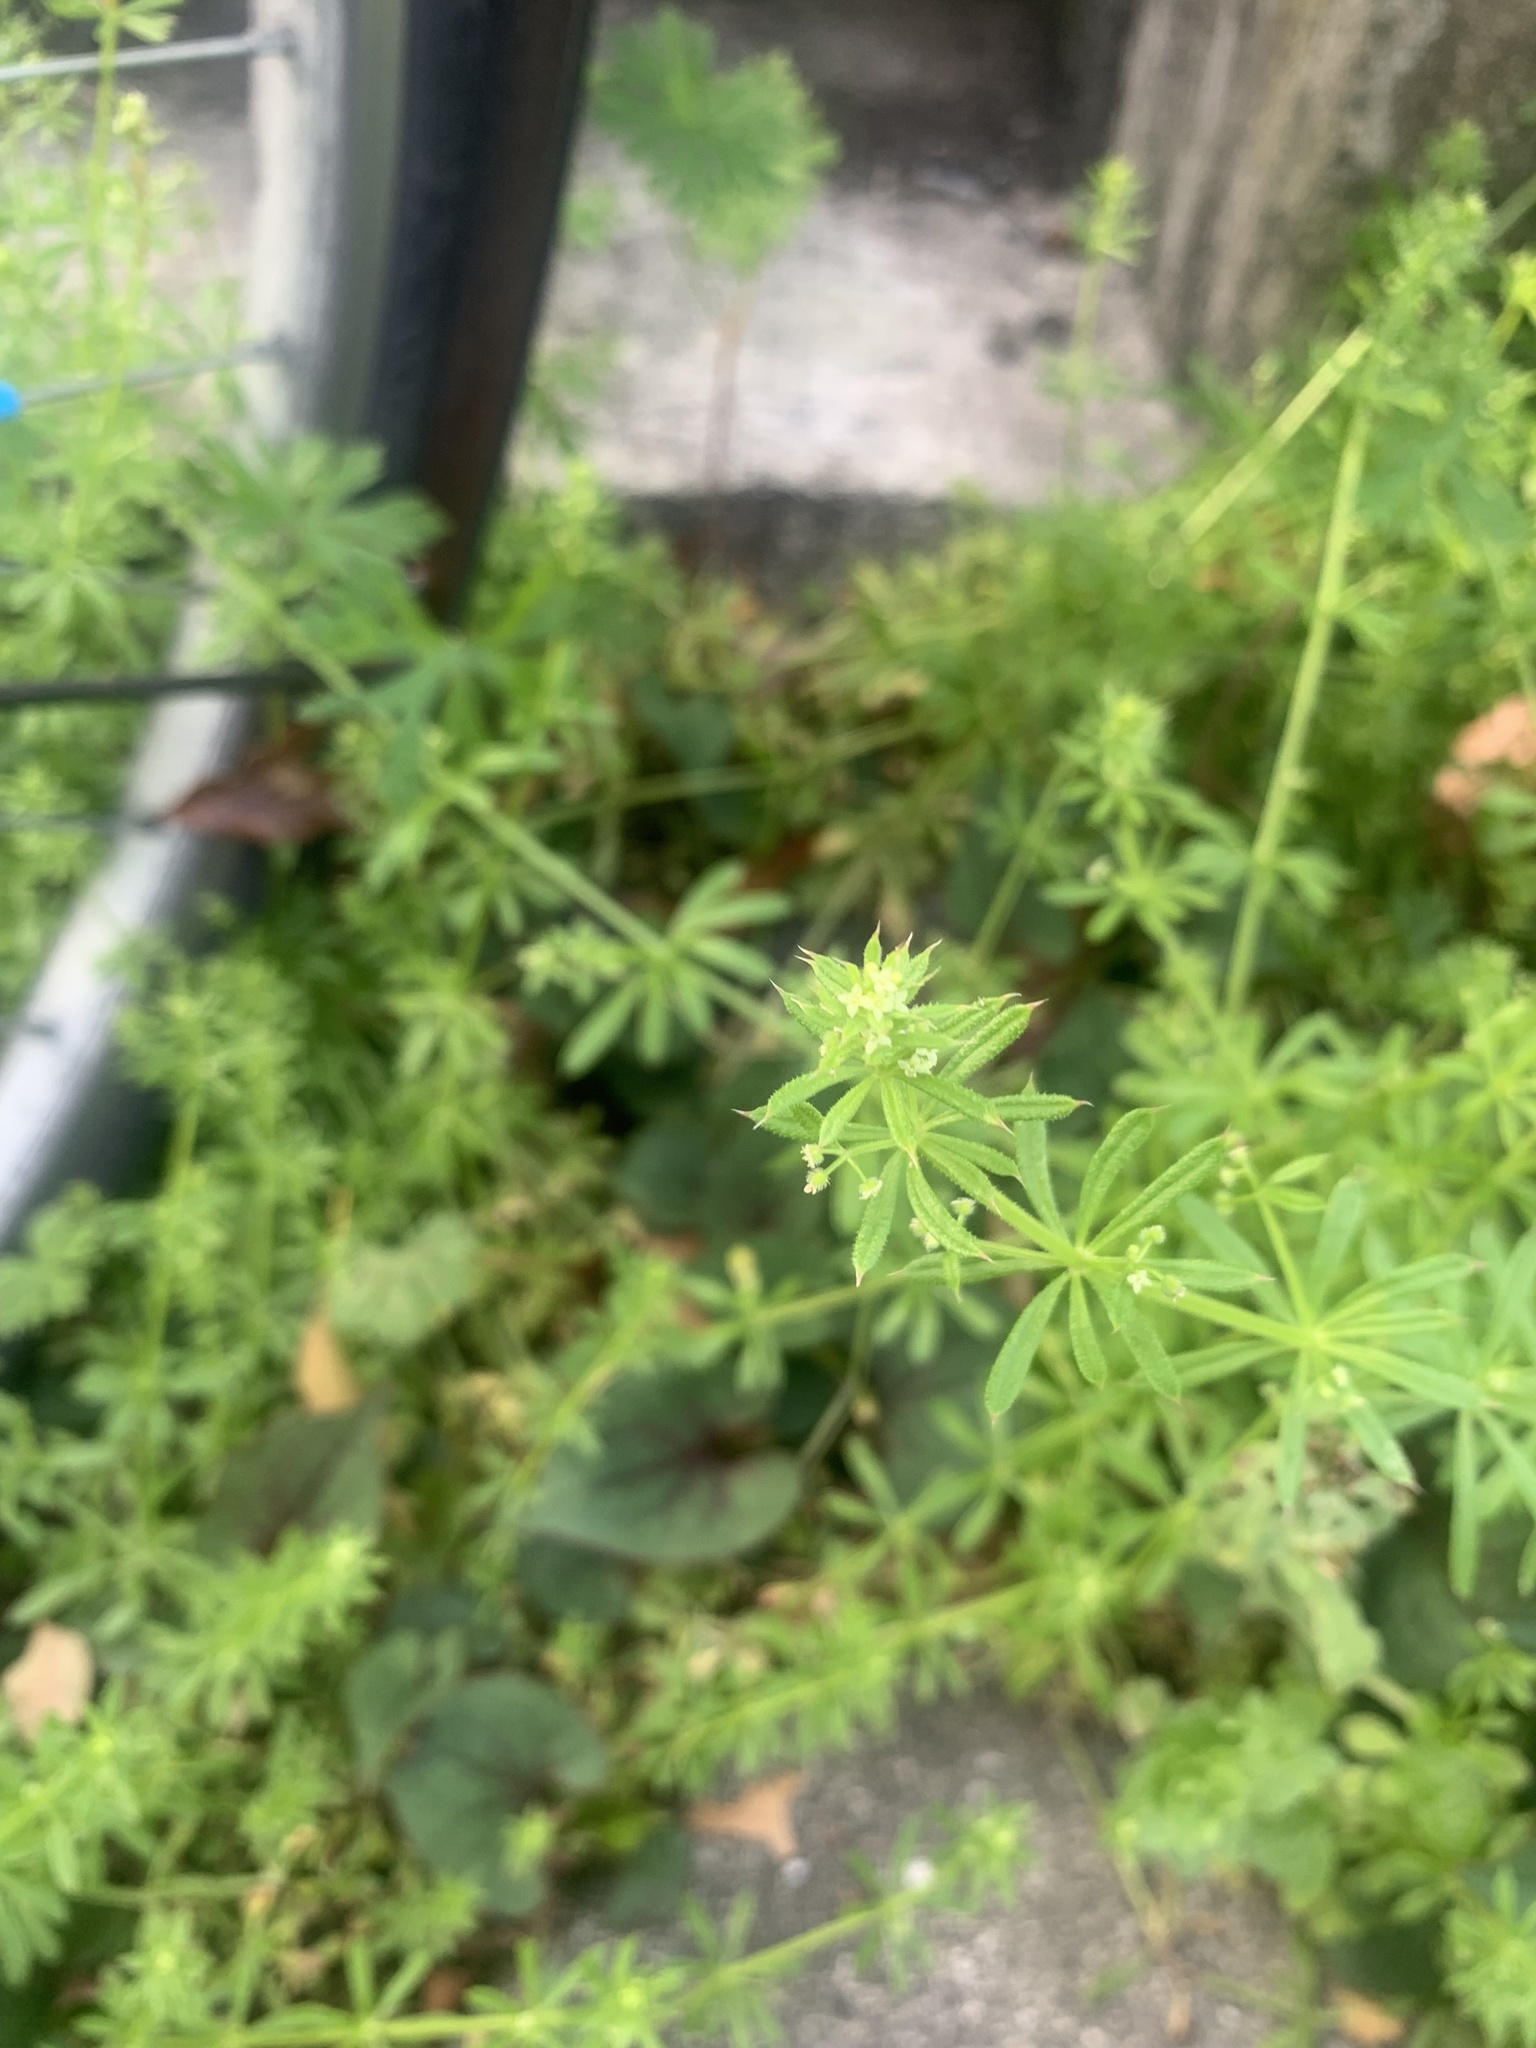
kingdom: Plantae
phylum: Tracheophyta
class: Magnoliopsida
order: Gentianales
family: Rubiaceae
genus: Galium
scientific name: Galium
